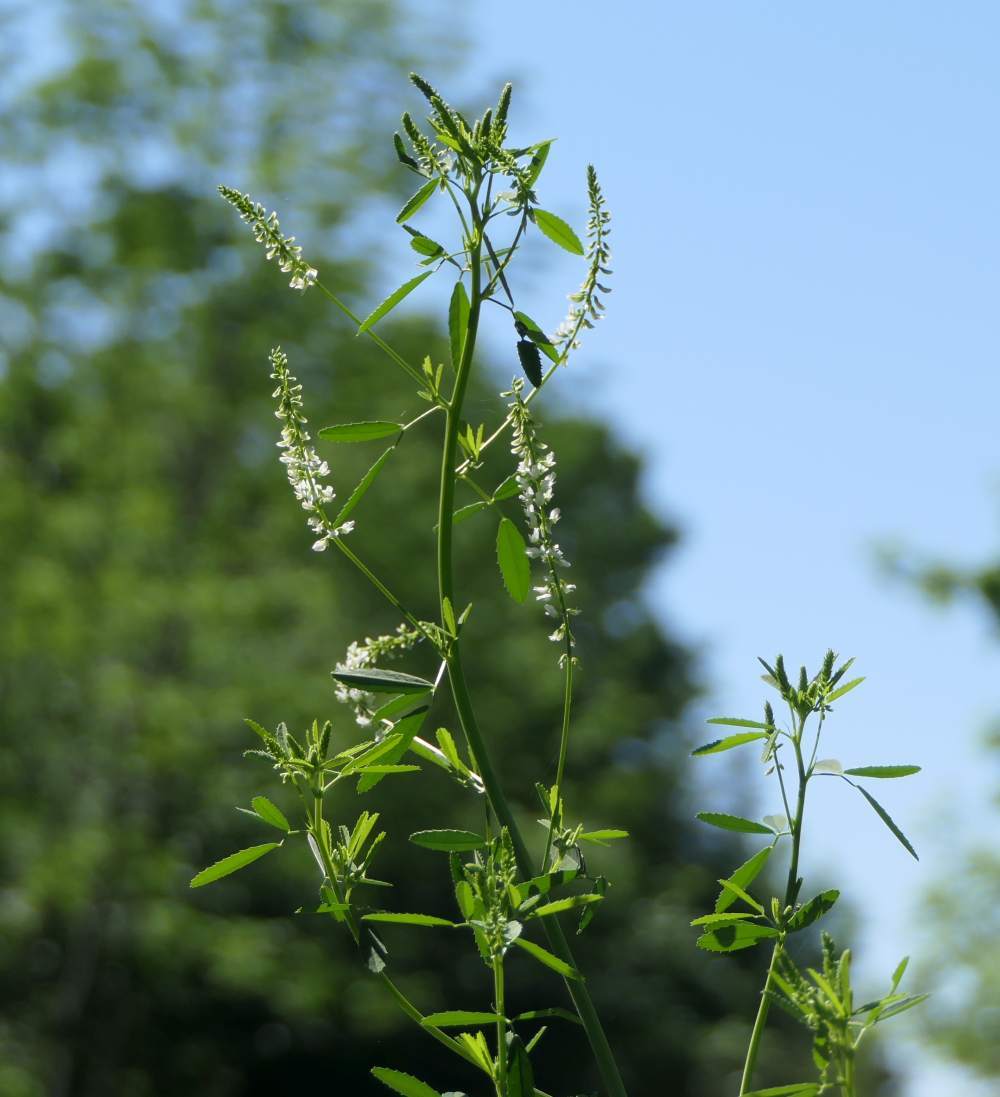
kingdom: Plantae
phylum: Tracheophyta
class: Magnoliopsida
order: Fabales
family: Fabaceae
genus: Melilotus
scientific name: Melilotus albus
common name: White melilot
